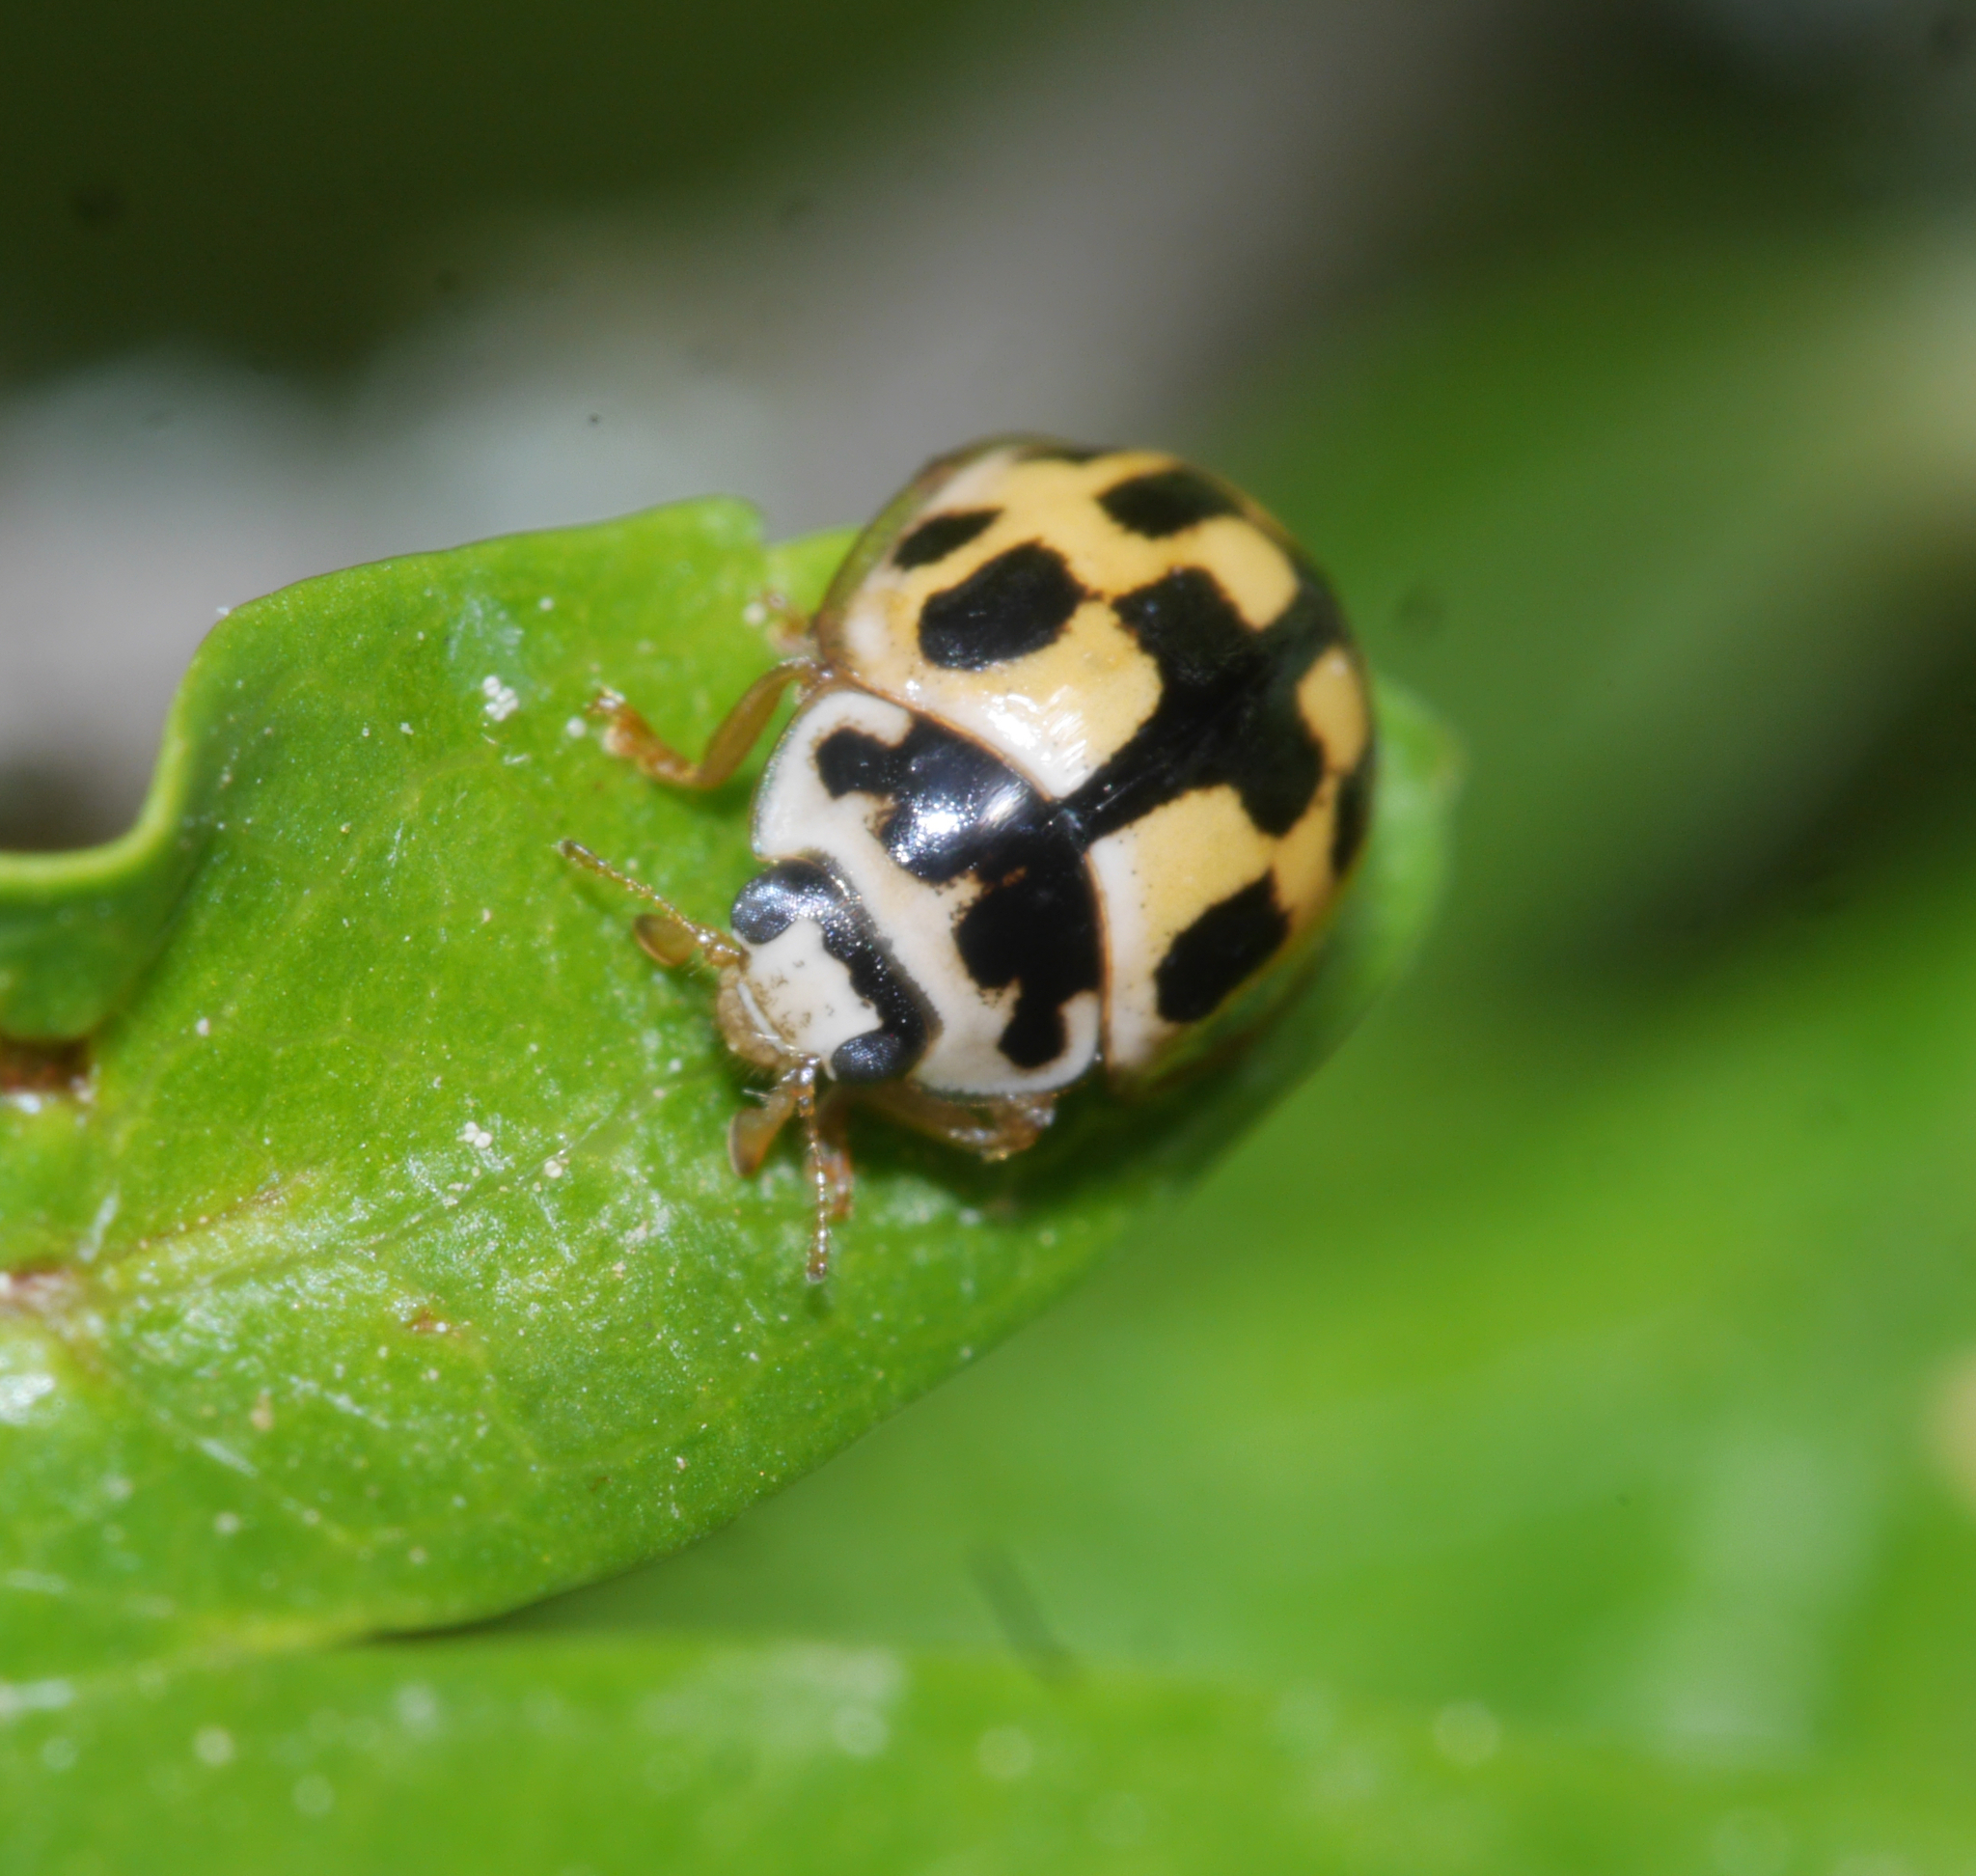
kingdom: Animalia
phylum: Arthropoda
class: Insecta
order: Coleoptera
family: Coccinellidae
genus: Propylaea
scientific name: Propylaea quatuordecimpunctata
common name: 14-spotted ladybird beetle
